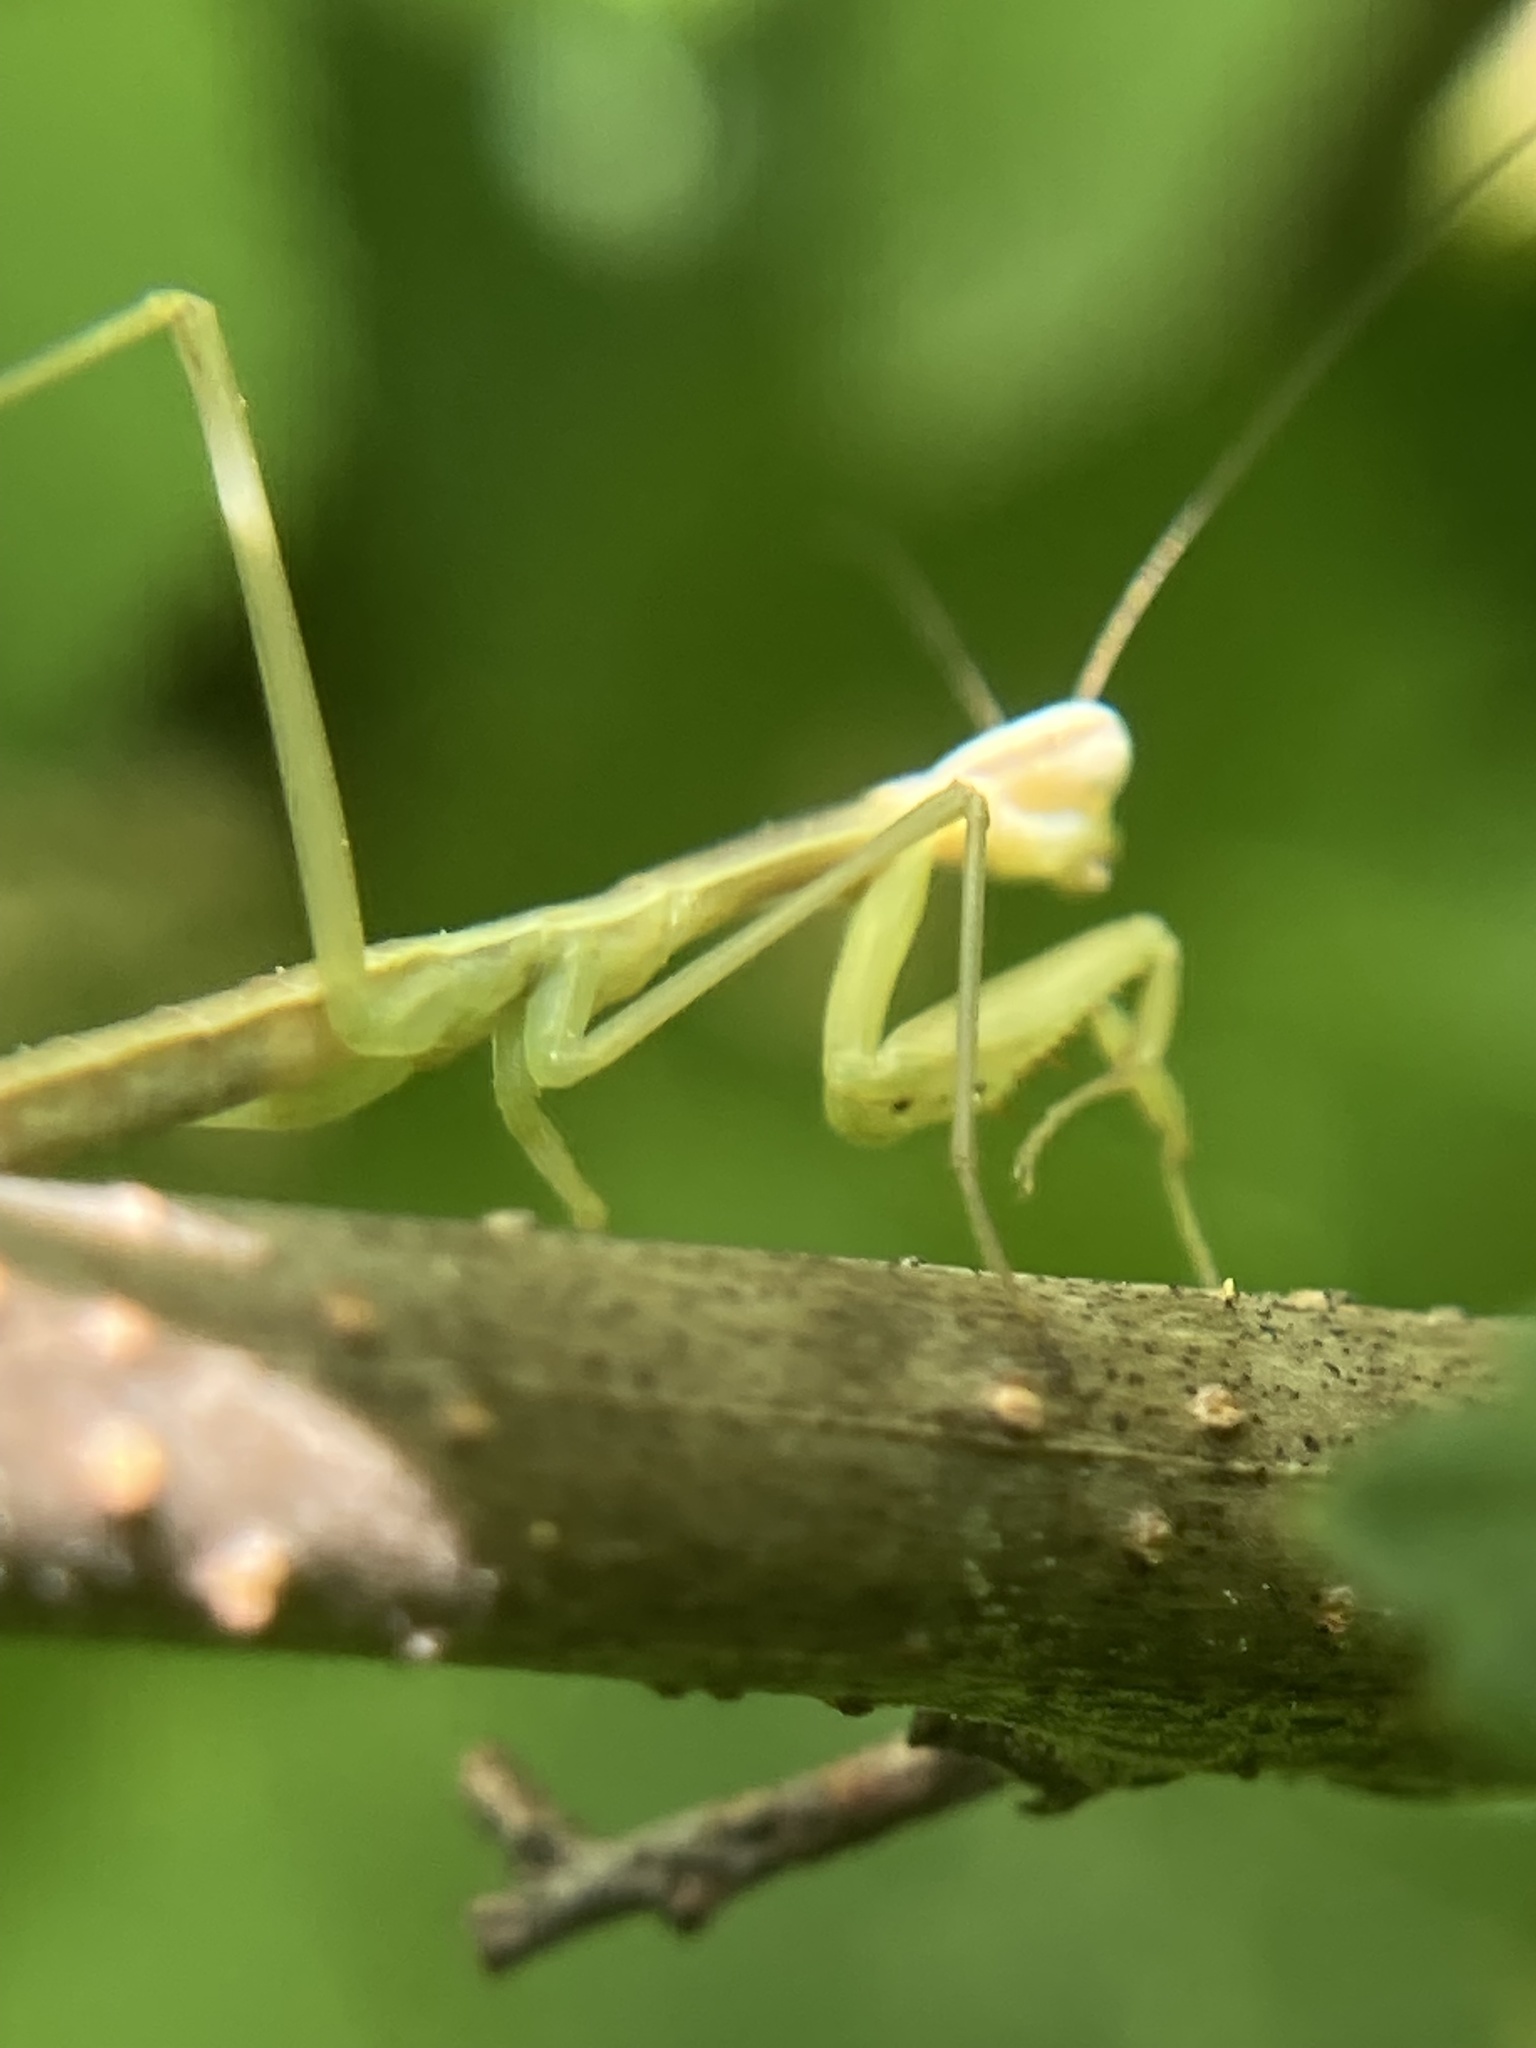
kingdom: Animalia
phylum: Arthropoda
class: Insecta
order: Mantodea
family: Mantidae
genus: Tenodera
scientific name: Tenodera sinensis
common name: Chinese mantis
